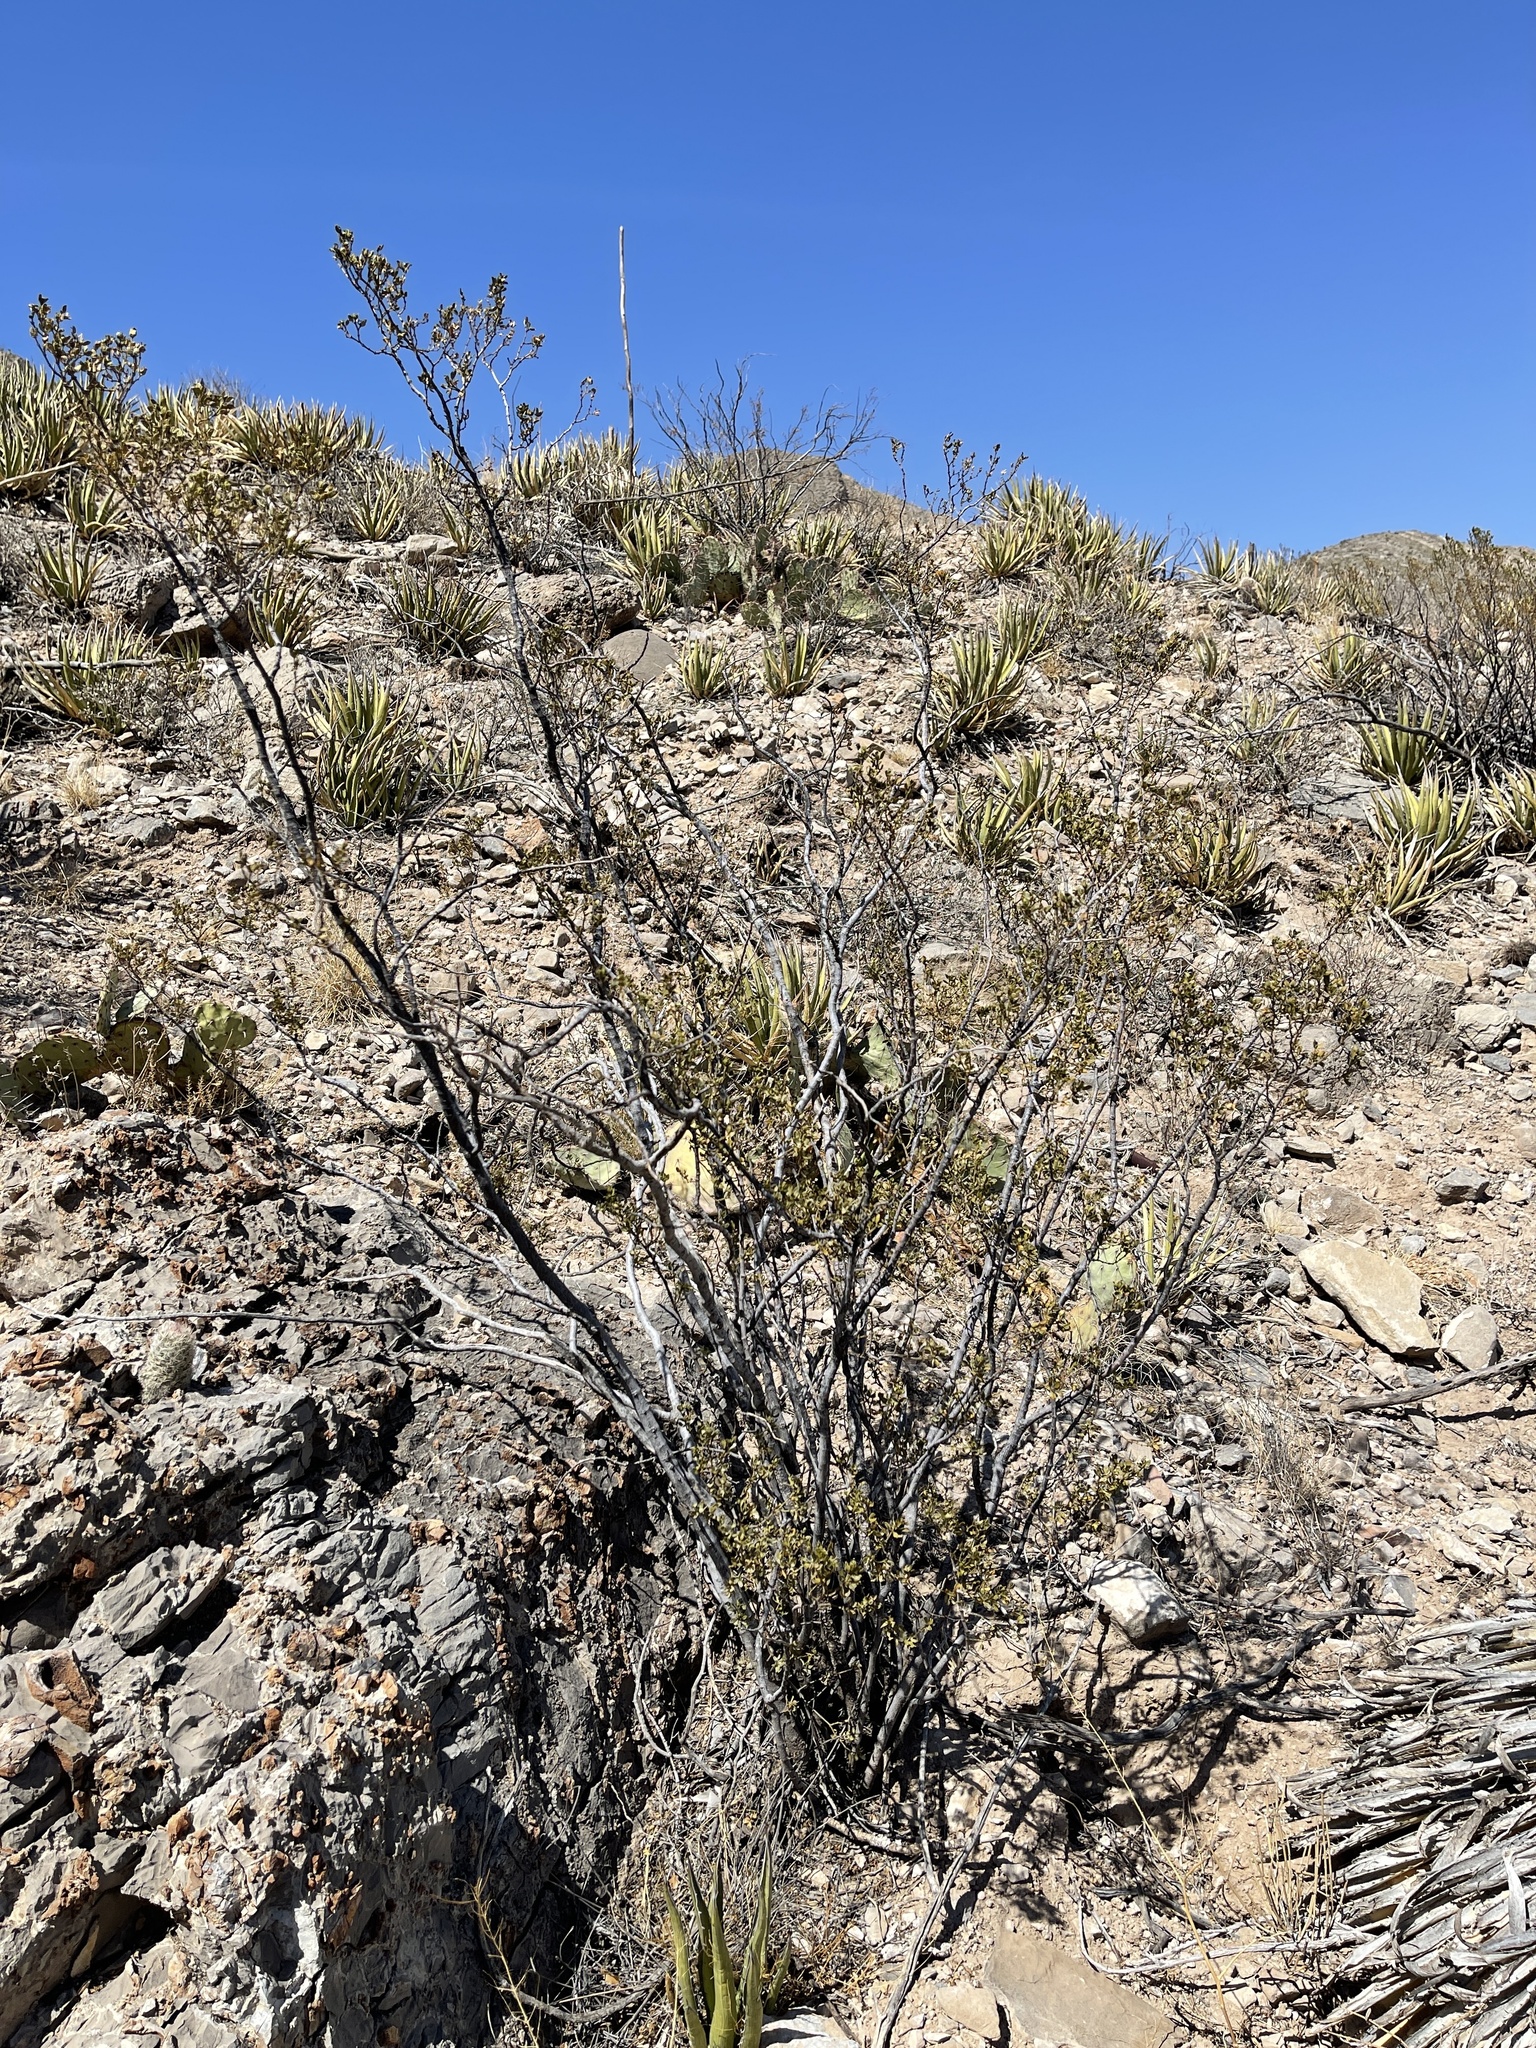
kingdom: Plantae
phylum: Tracheophyta
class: Magnoliopsida
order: Zygophyllales
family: Zygophyllaceae
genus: Larrea
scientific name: Larrea tridentata
